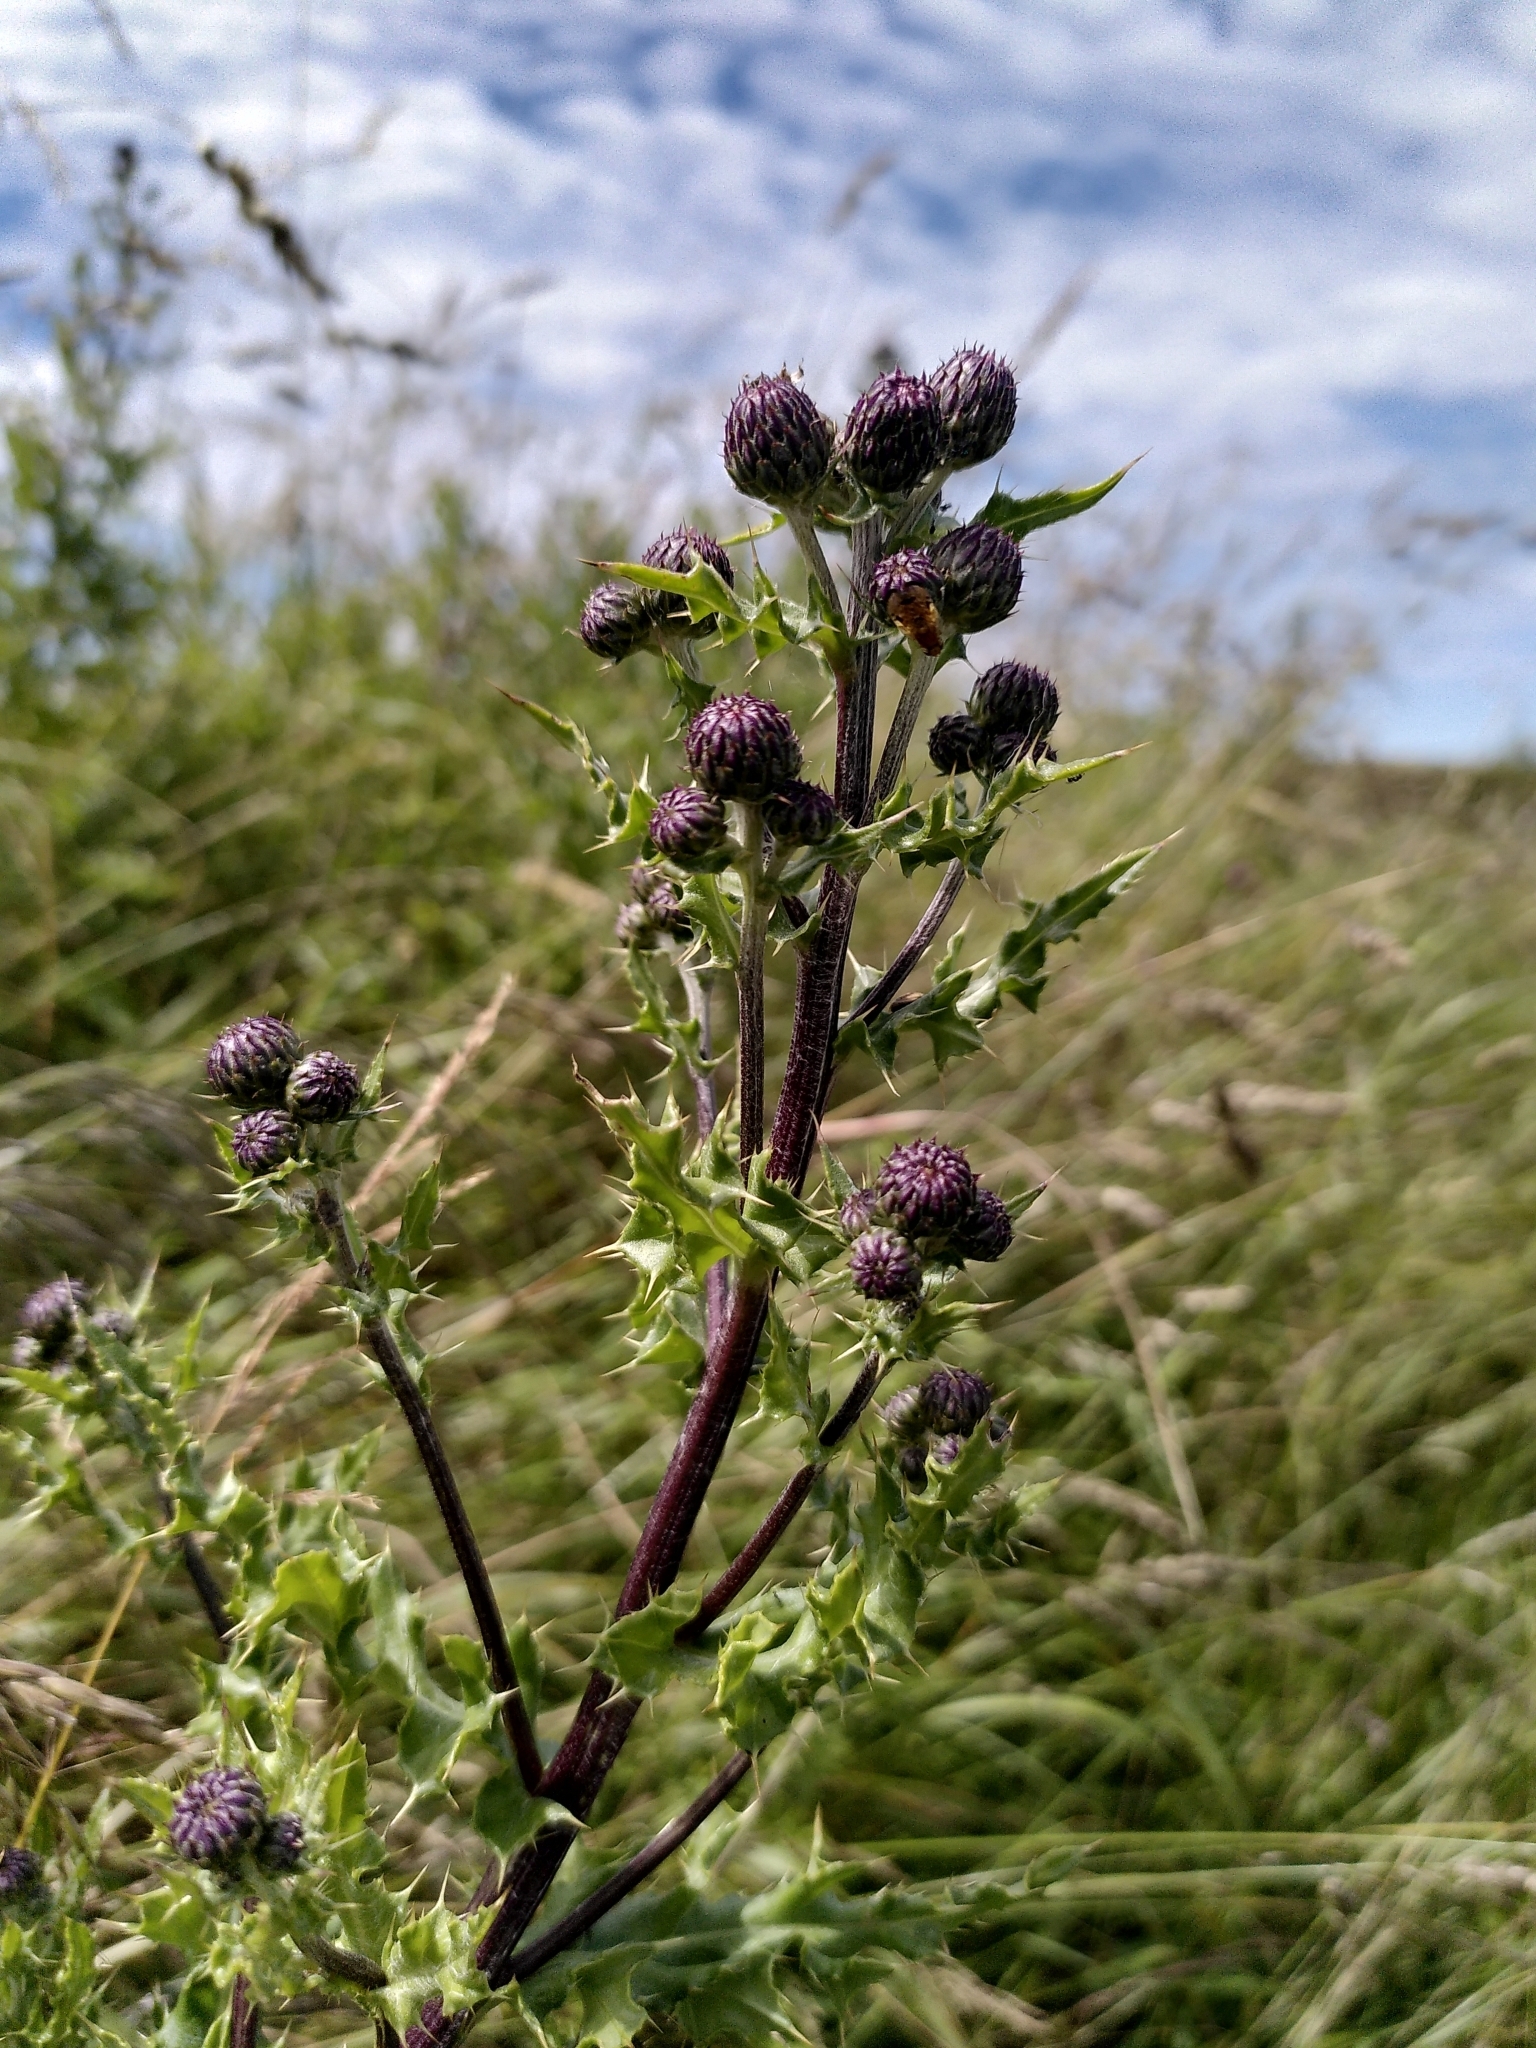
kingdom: Plantae
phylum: Tracheophyta
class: Magnoliopsida
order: Asterales
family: Asteraceae
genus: Cirsium
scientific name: Cirsium arvense
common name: Creeping thistle
